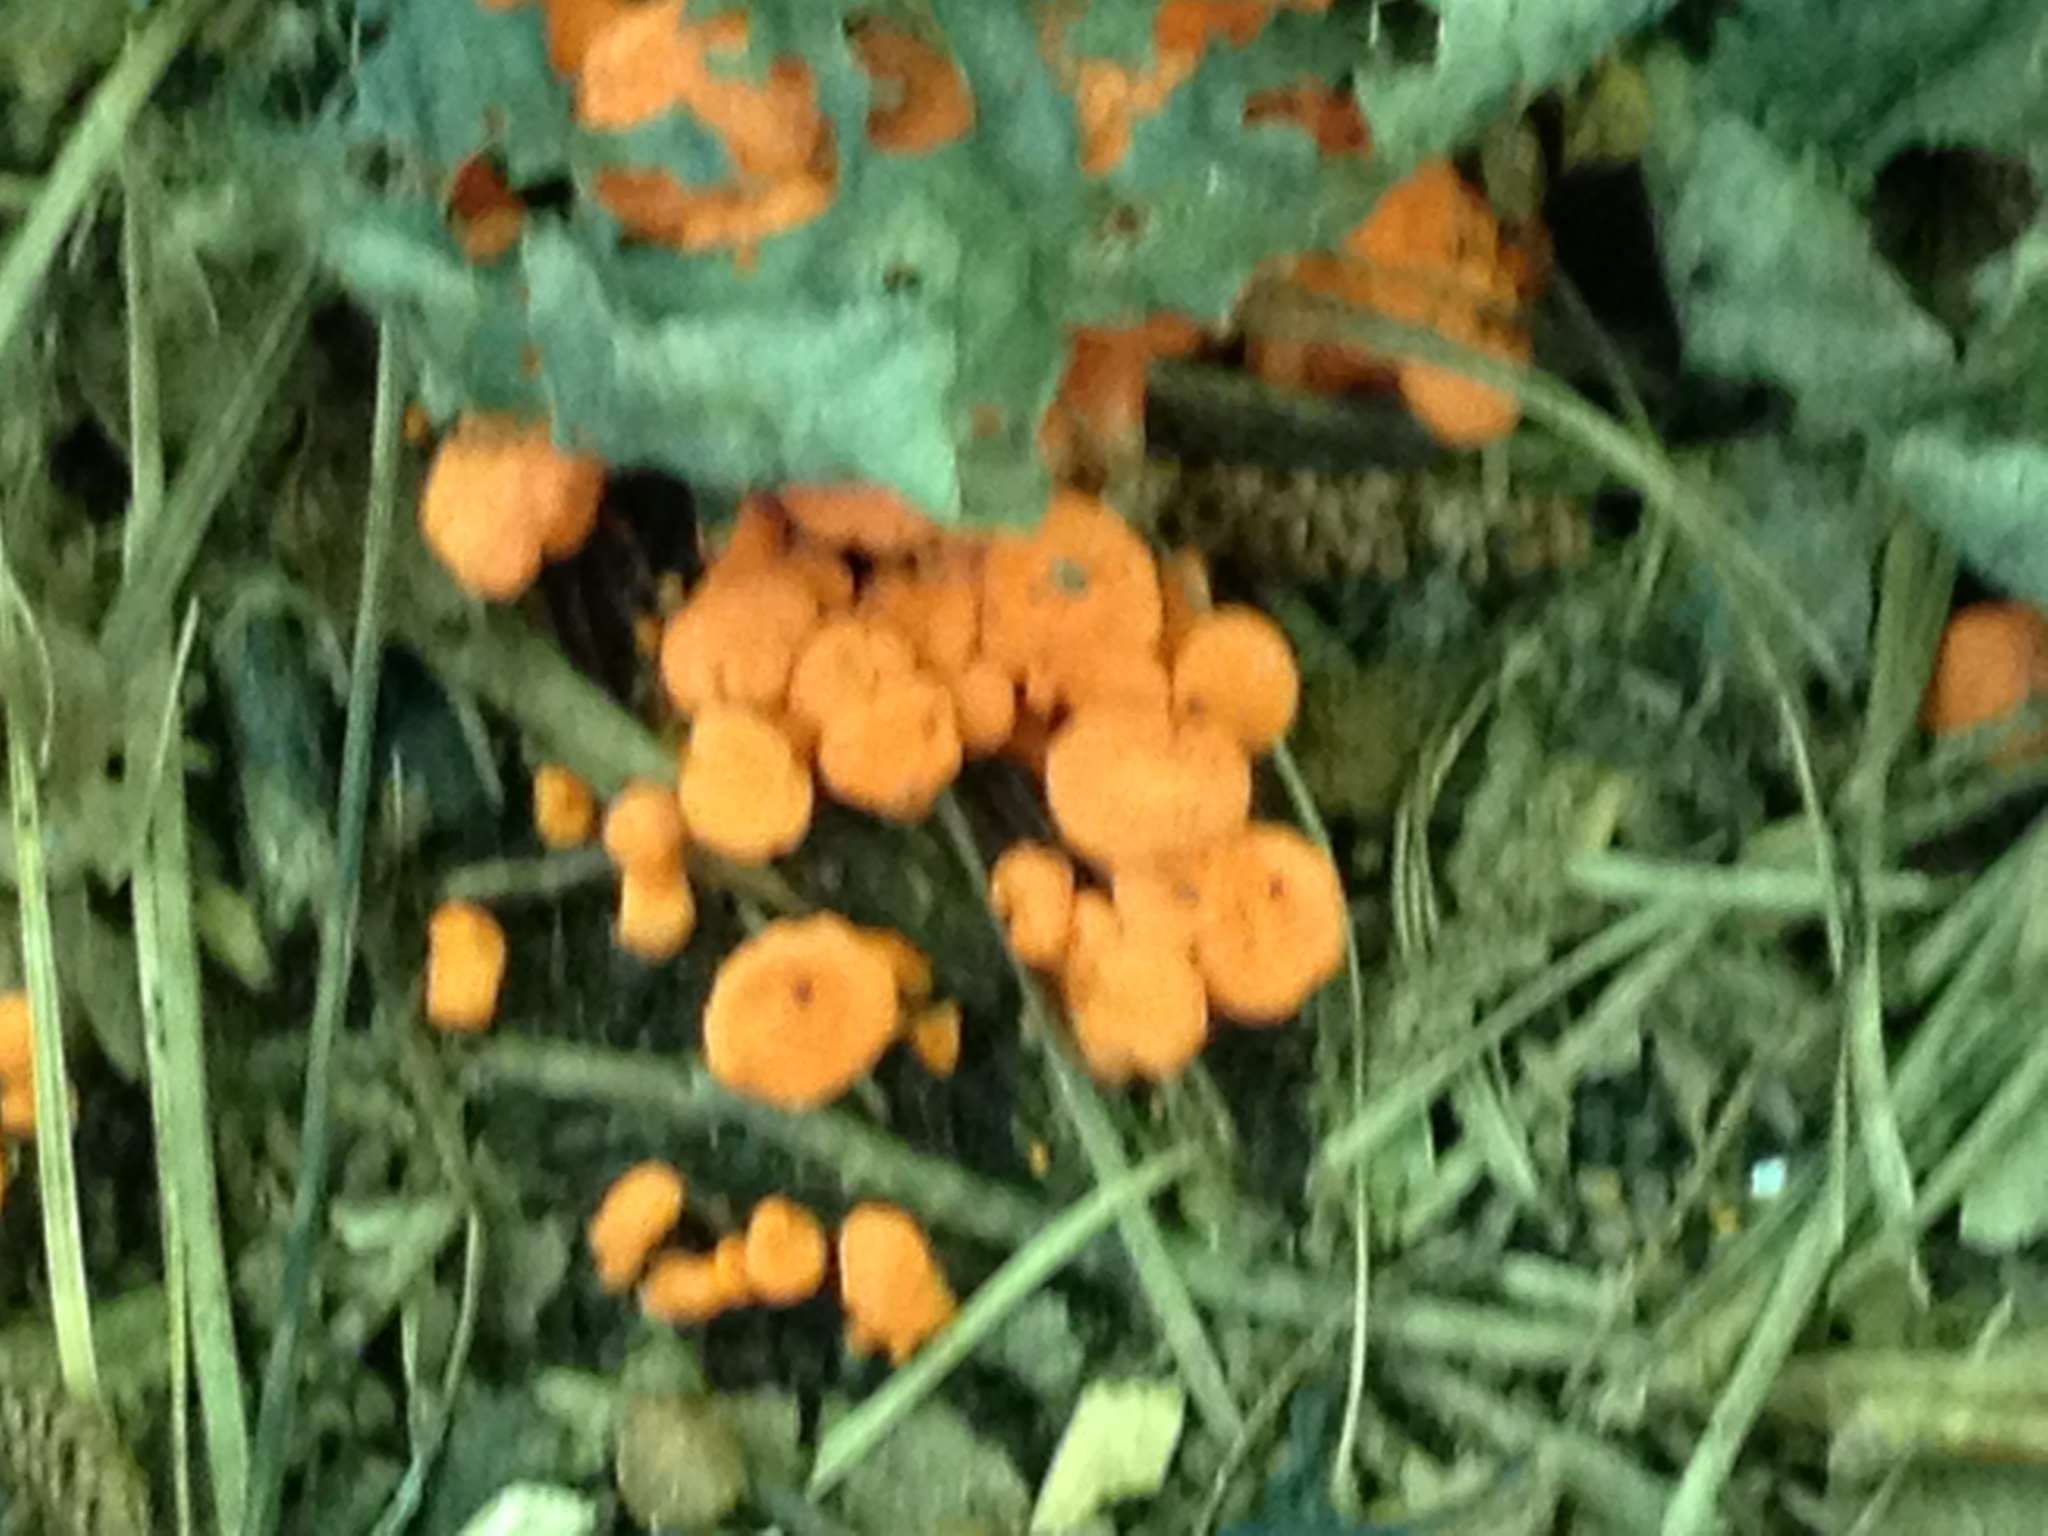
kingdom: Fungi
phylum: Basidiomycota
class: Agaricomycetes
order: Cantharellales
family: Hydnaceae
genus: Cantharellus
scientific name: Cantharellus cinnabarinus
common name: Cinnabar chanterelle
